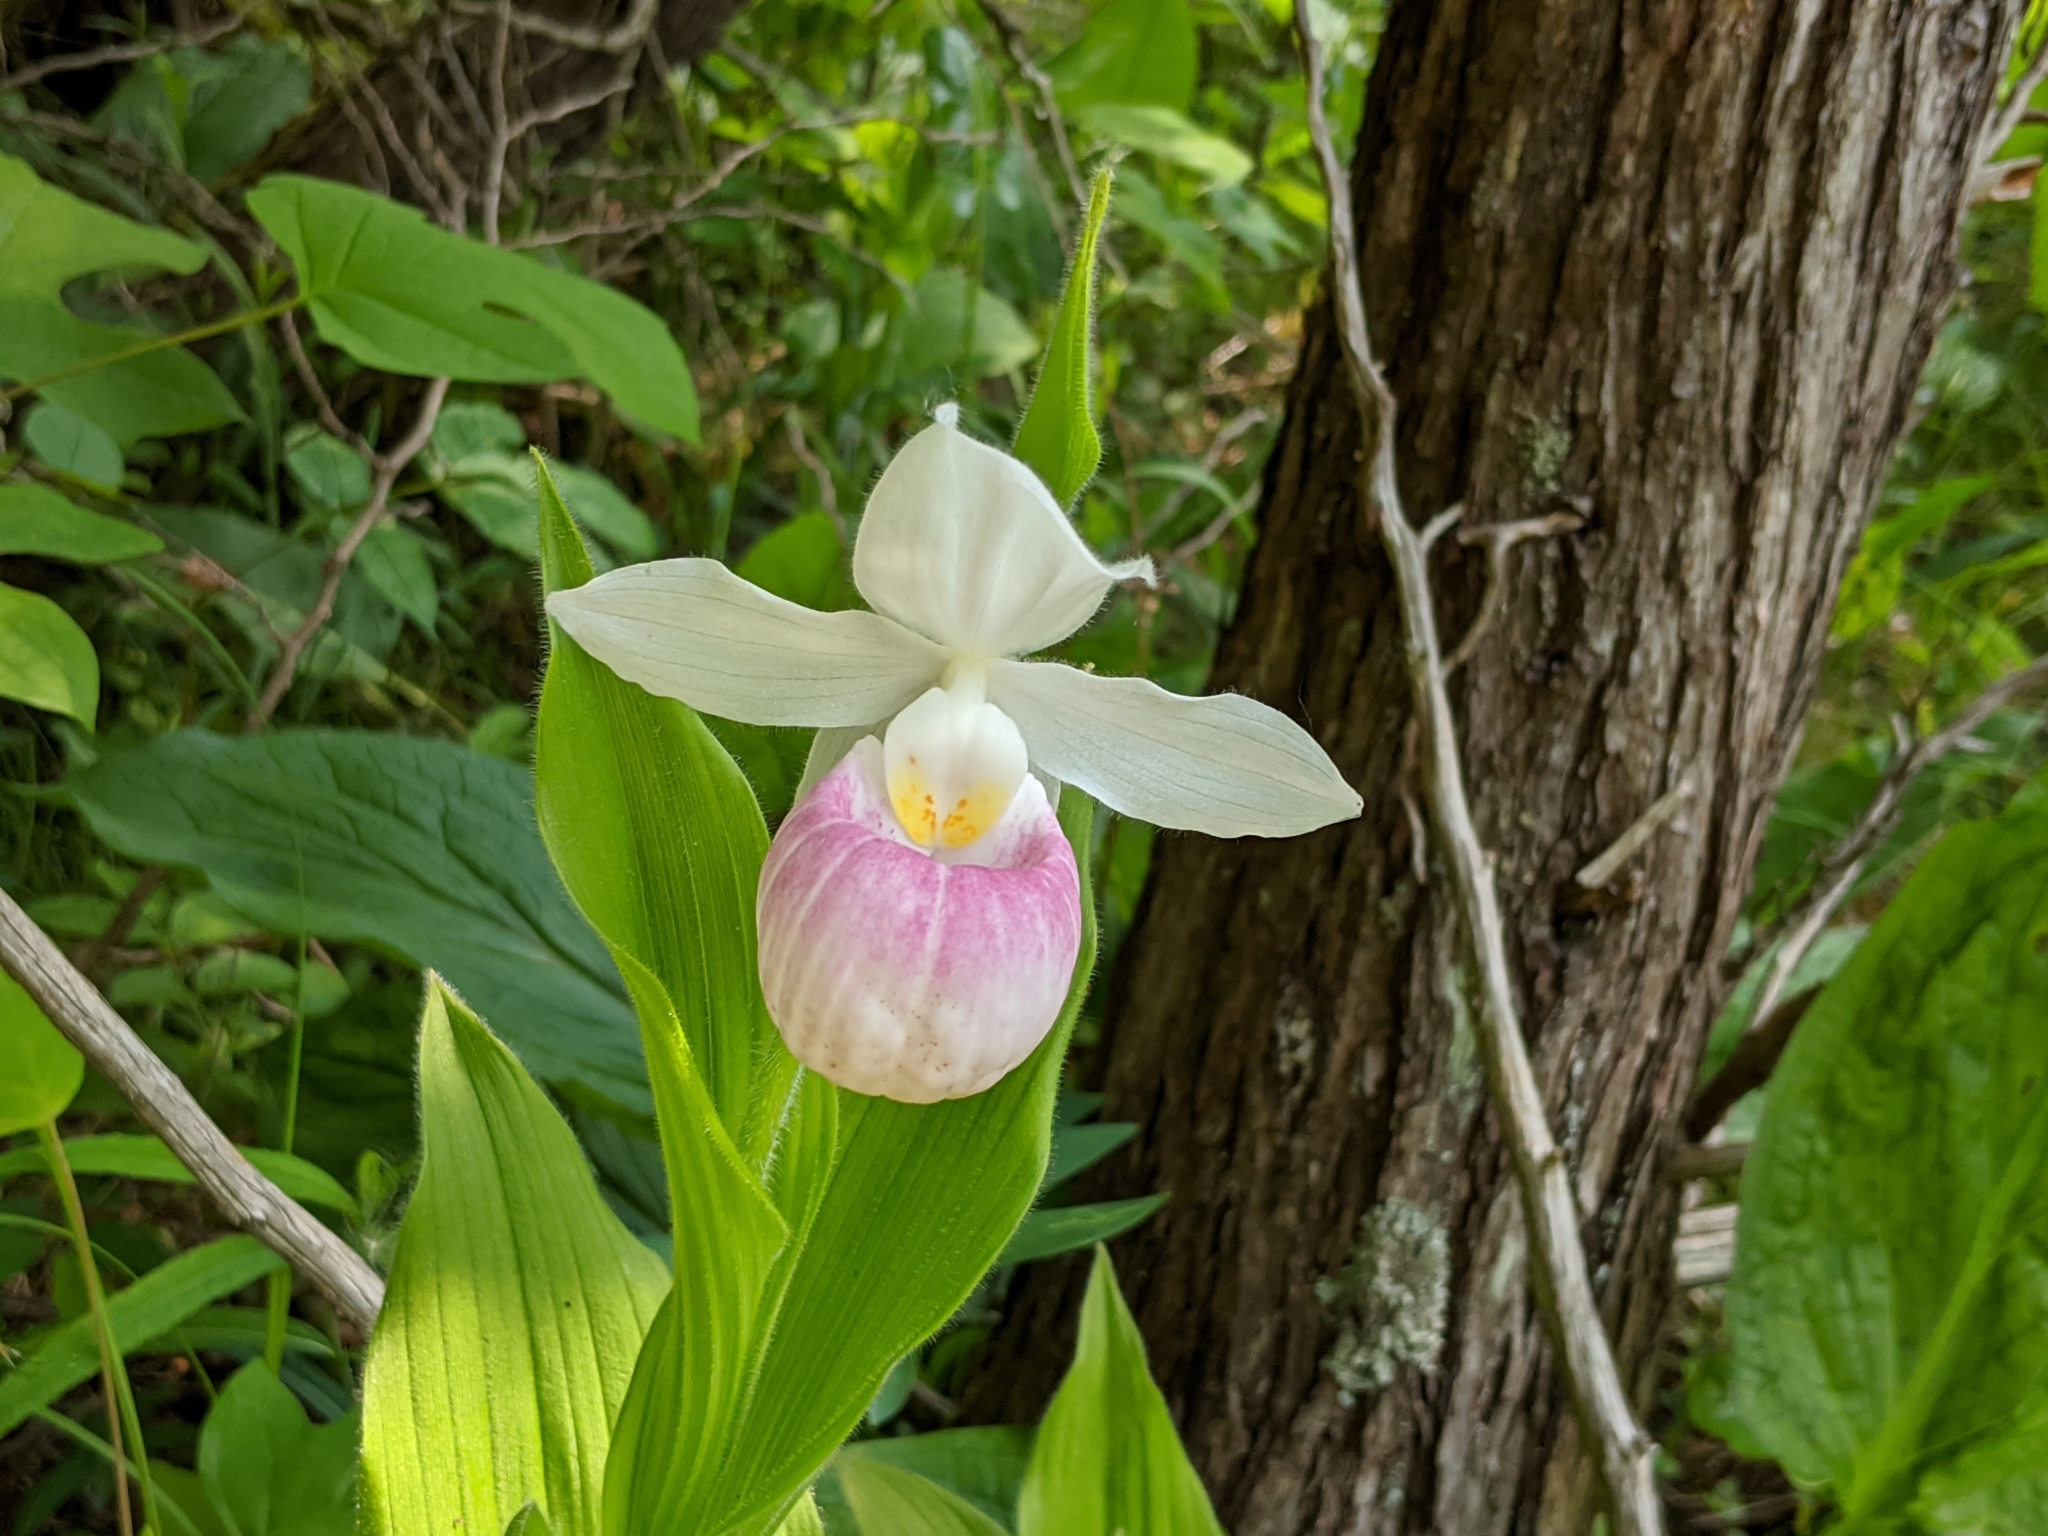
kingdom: Plantae
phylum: Tracheophyta
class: Liliopsida
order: Asparagales
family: Orchidaceae
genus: Cypripedium
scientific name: Cypripedium reginae
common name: Queen lady's-slipper
